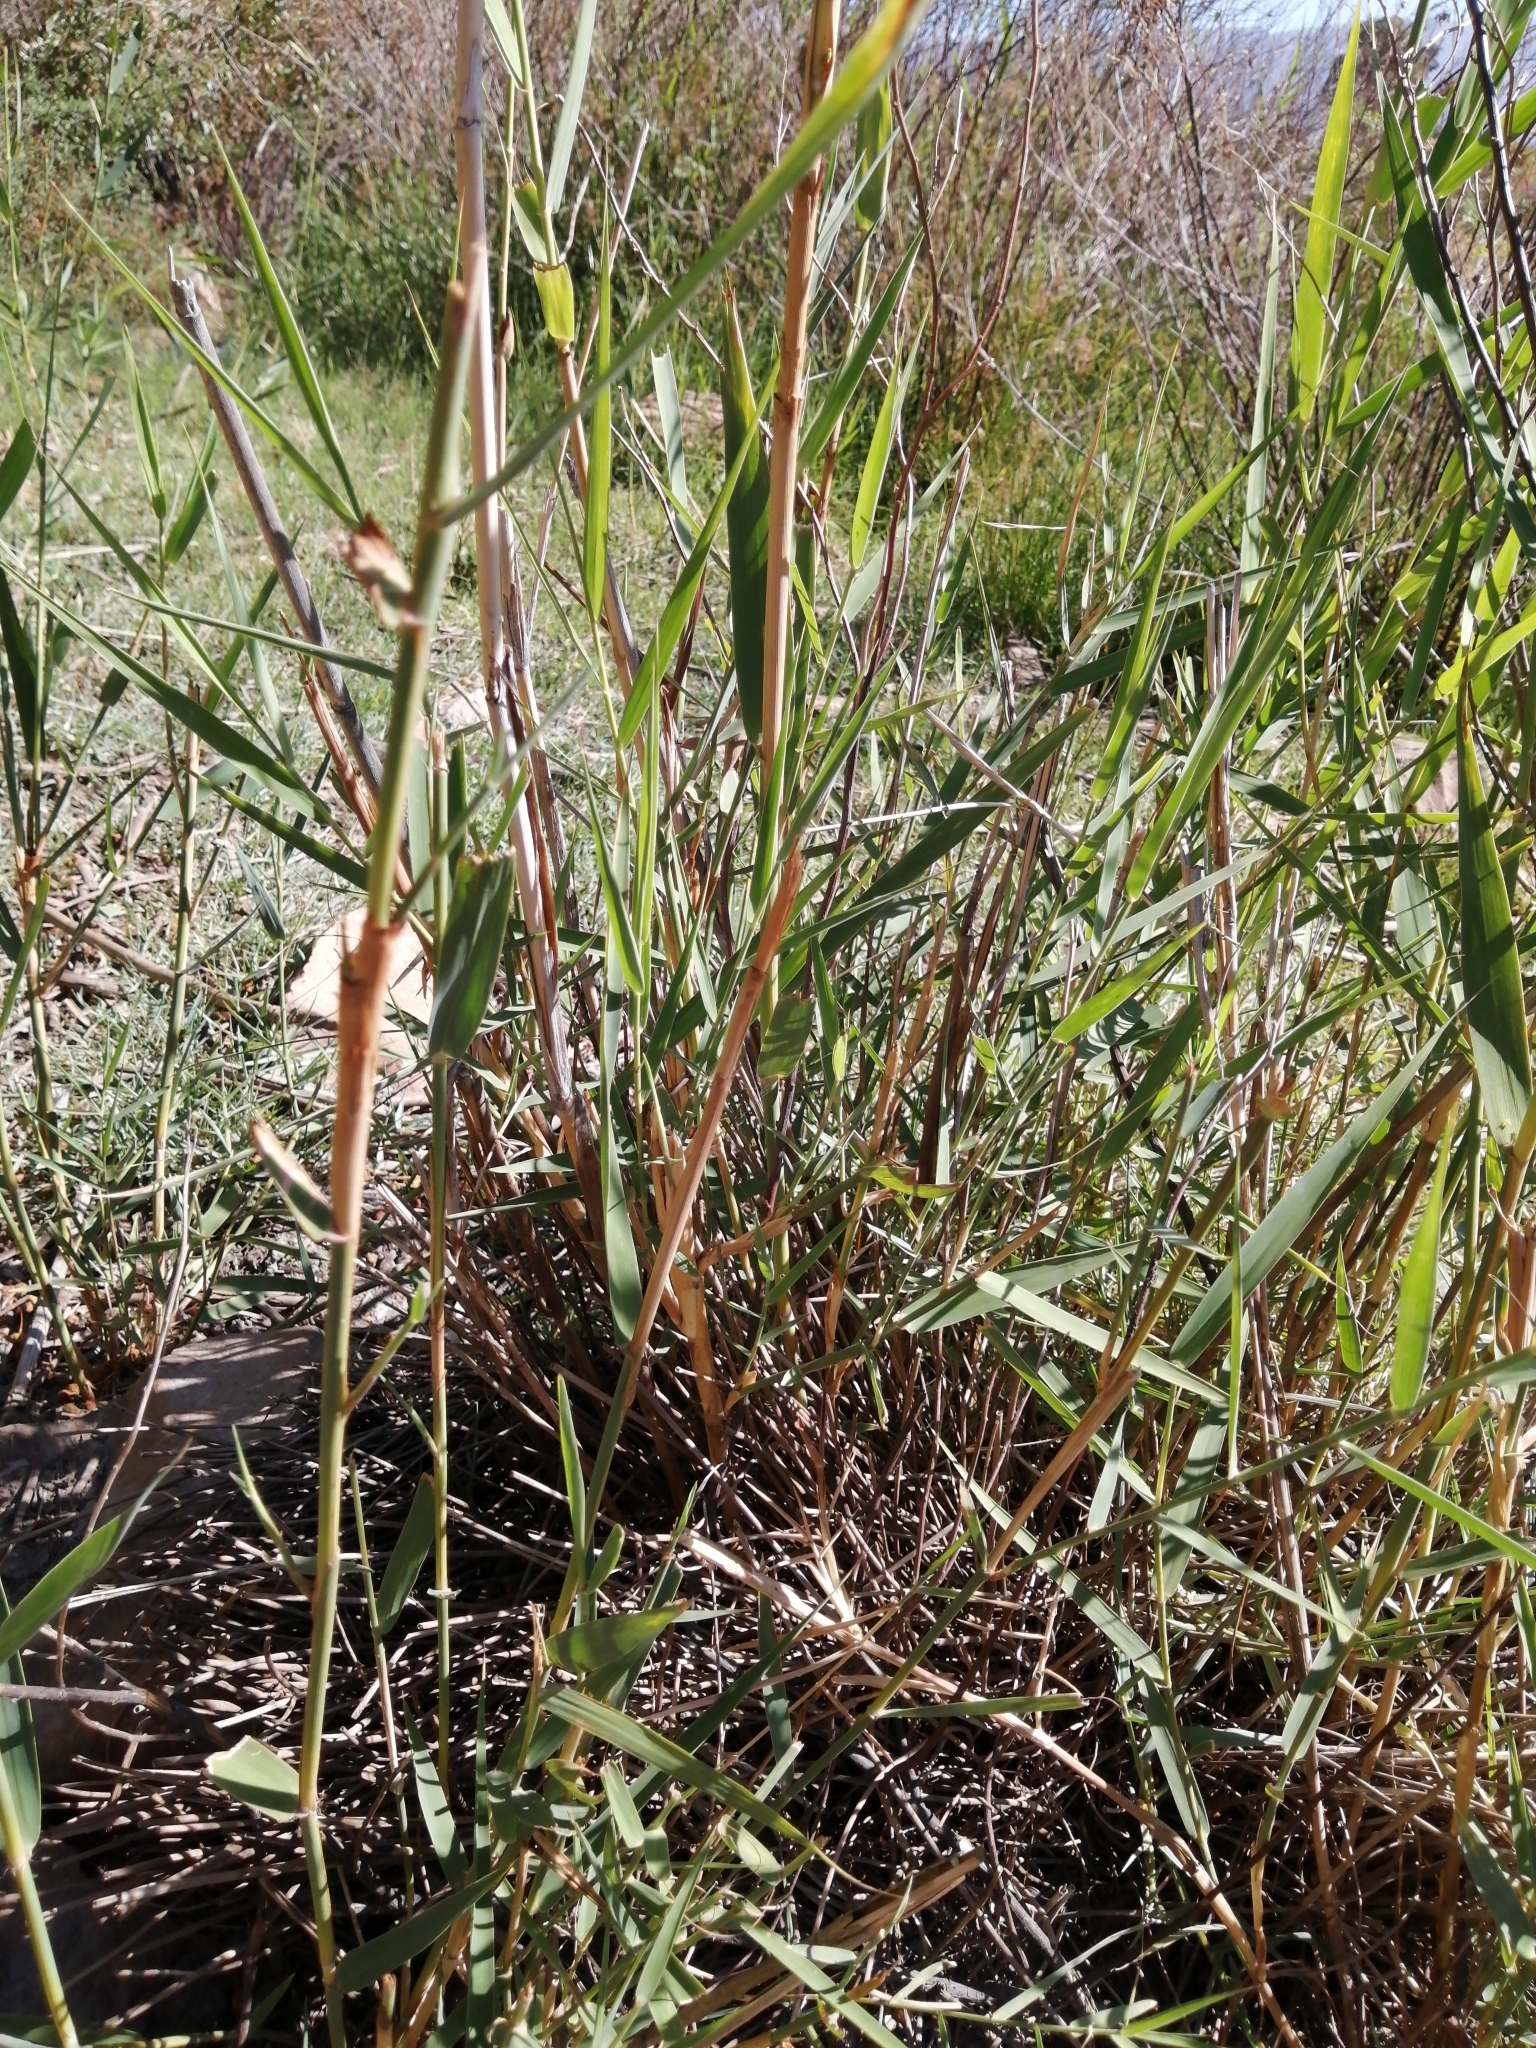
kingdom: Plantae
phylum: Tracheophyta
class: Liliopsida
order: Poales
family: Poaceae
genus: Phragmites
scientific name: Phragmites australis
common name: Common reed
